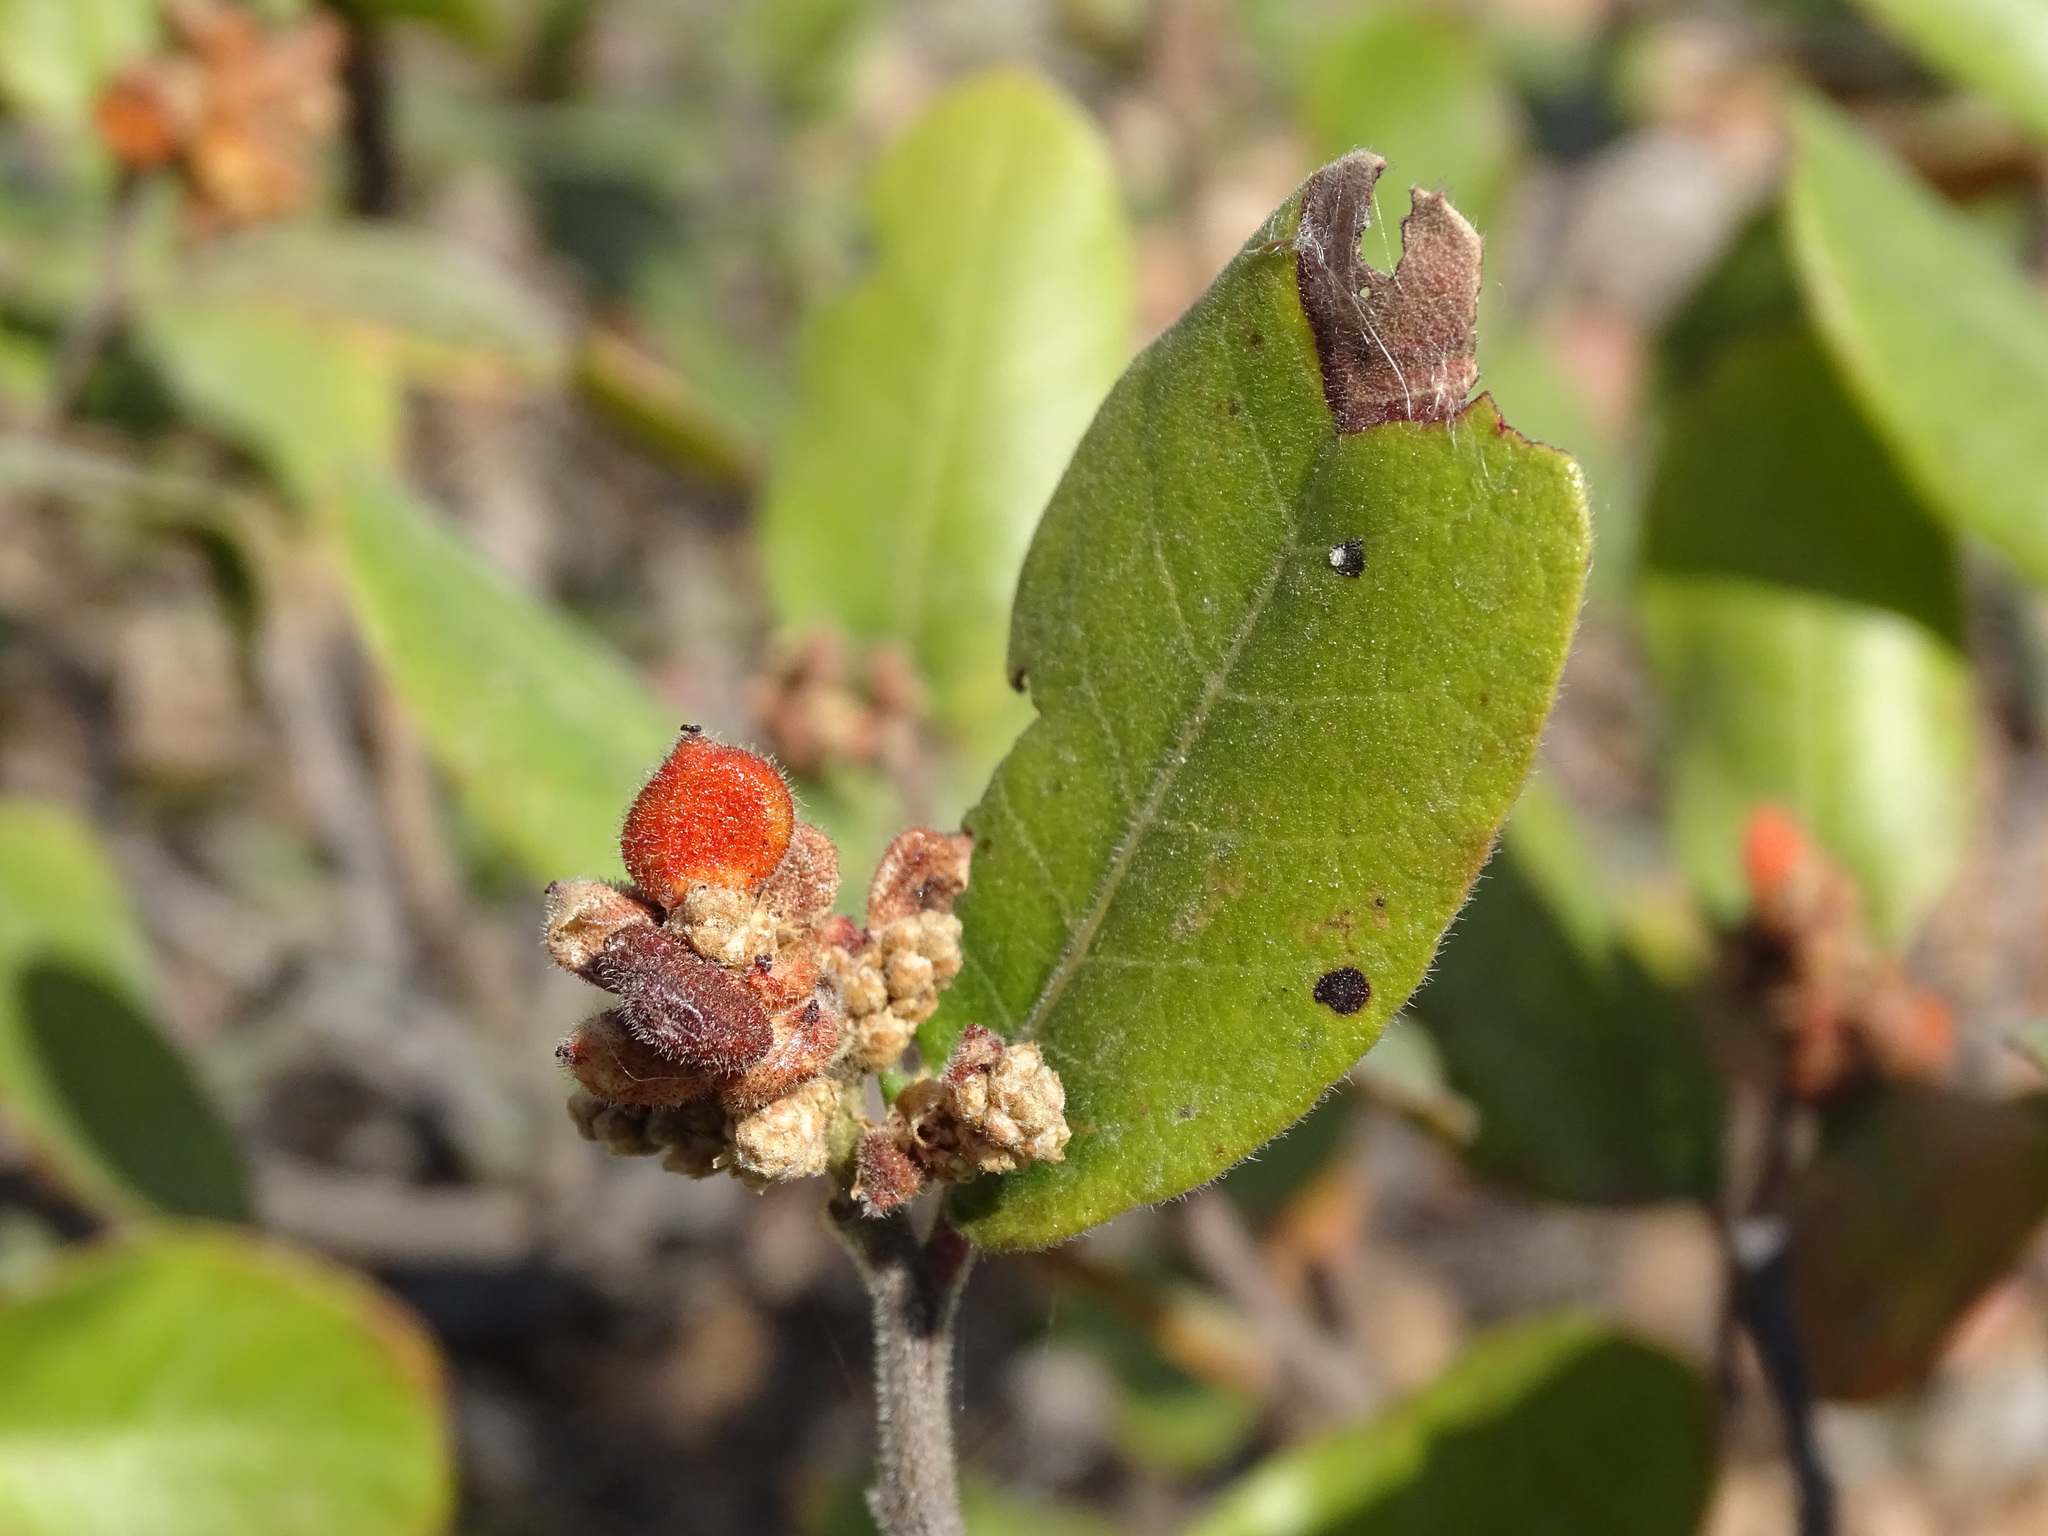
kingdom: Plantae
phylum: Tracheophyta
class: Magnoliopsida
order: Sapindales
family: Anacardiaceae
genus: Rhus
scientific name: Rhus standleyi
